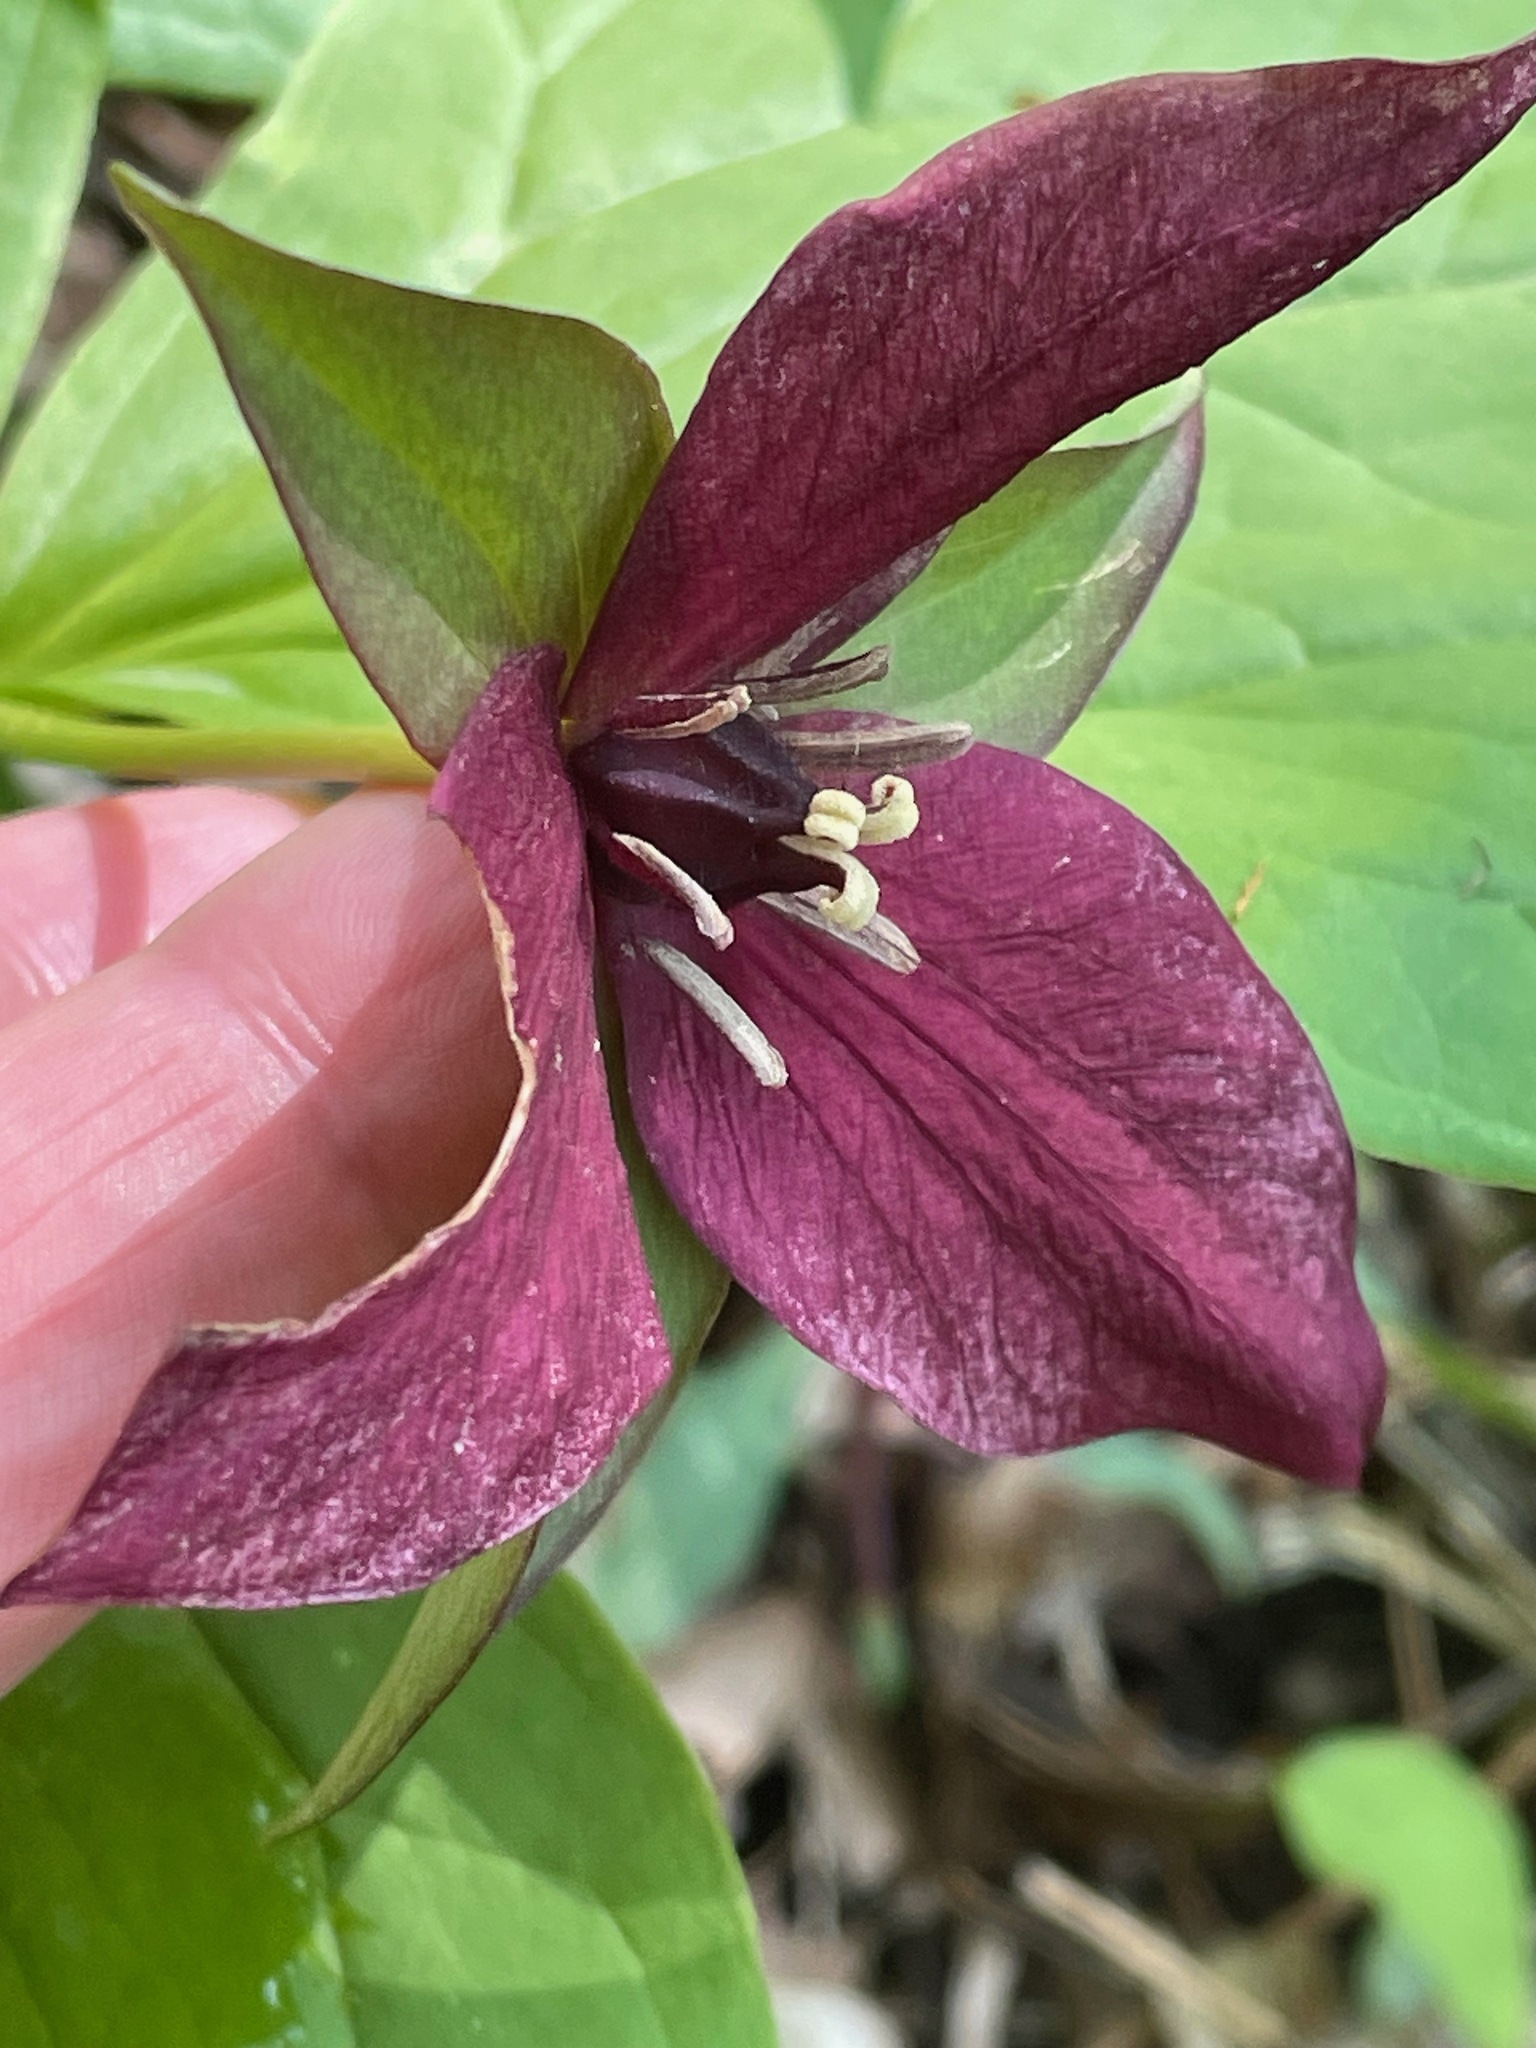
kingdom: Plantae
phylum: Tracheophyta
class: Liliopsida
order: Liliales
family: Melanthiaceae
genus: Trillium
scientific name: Trillium erectum
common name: Purple trillium
